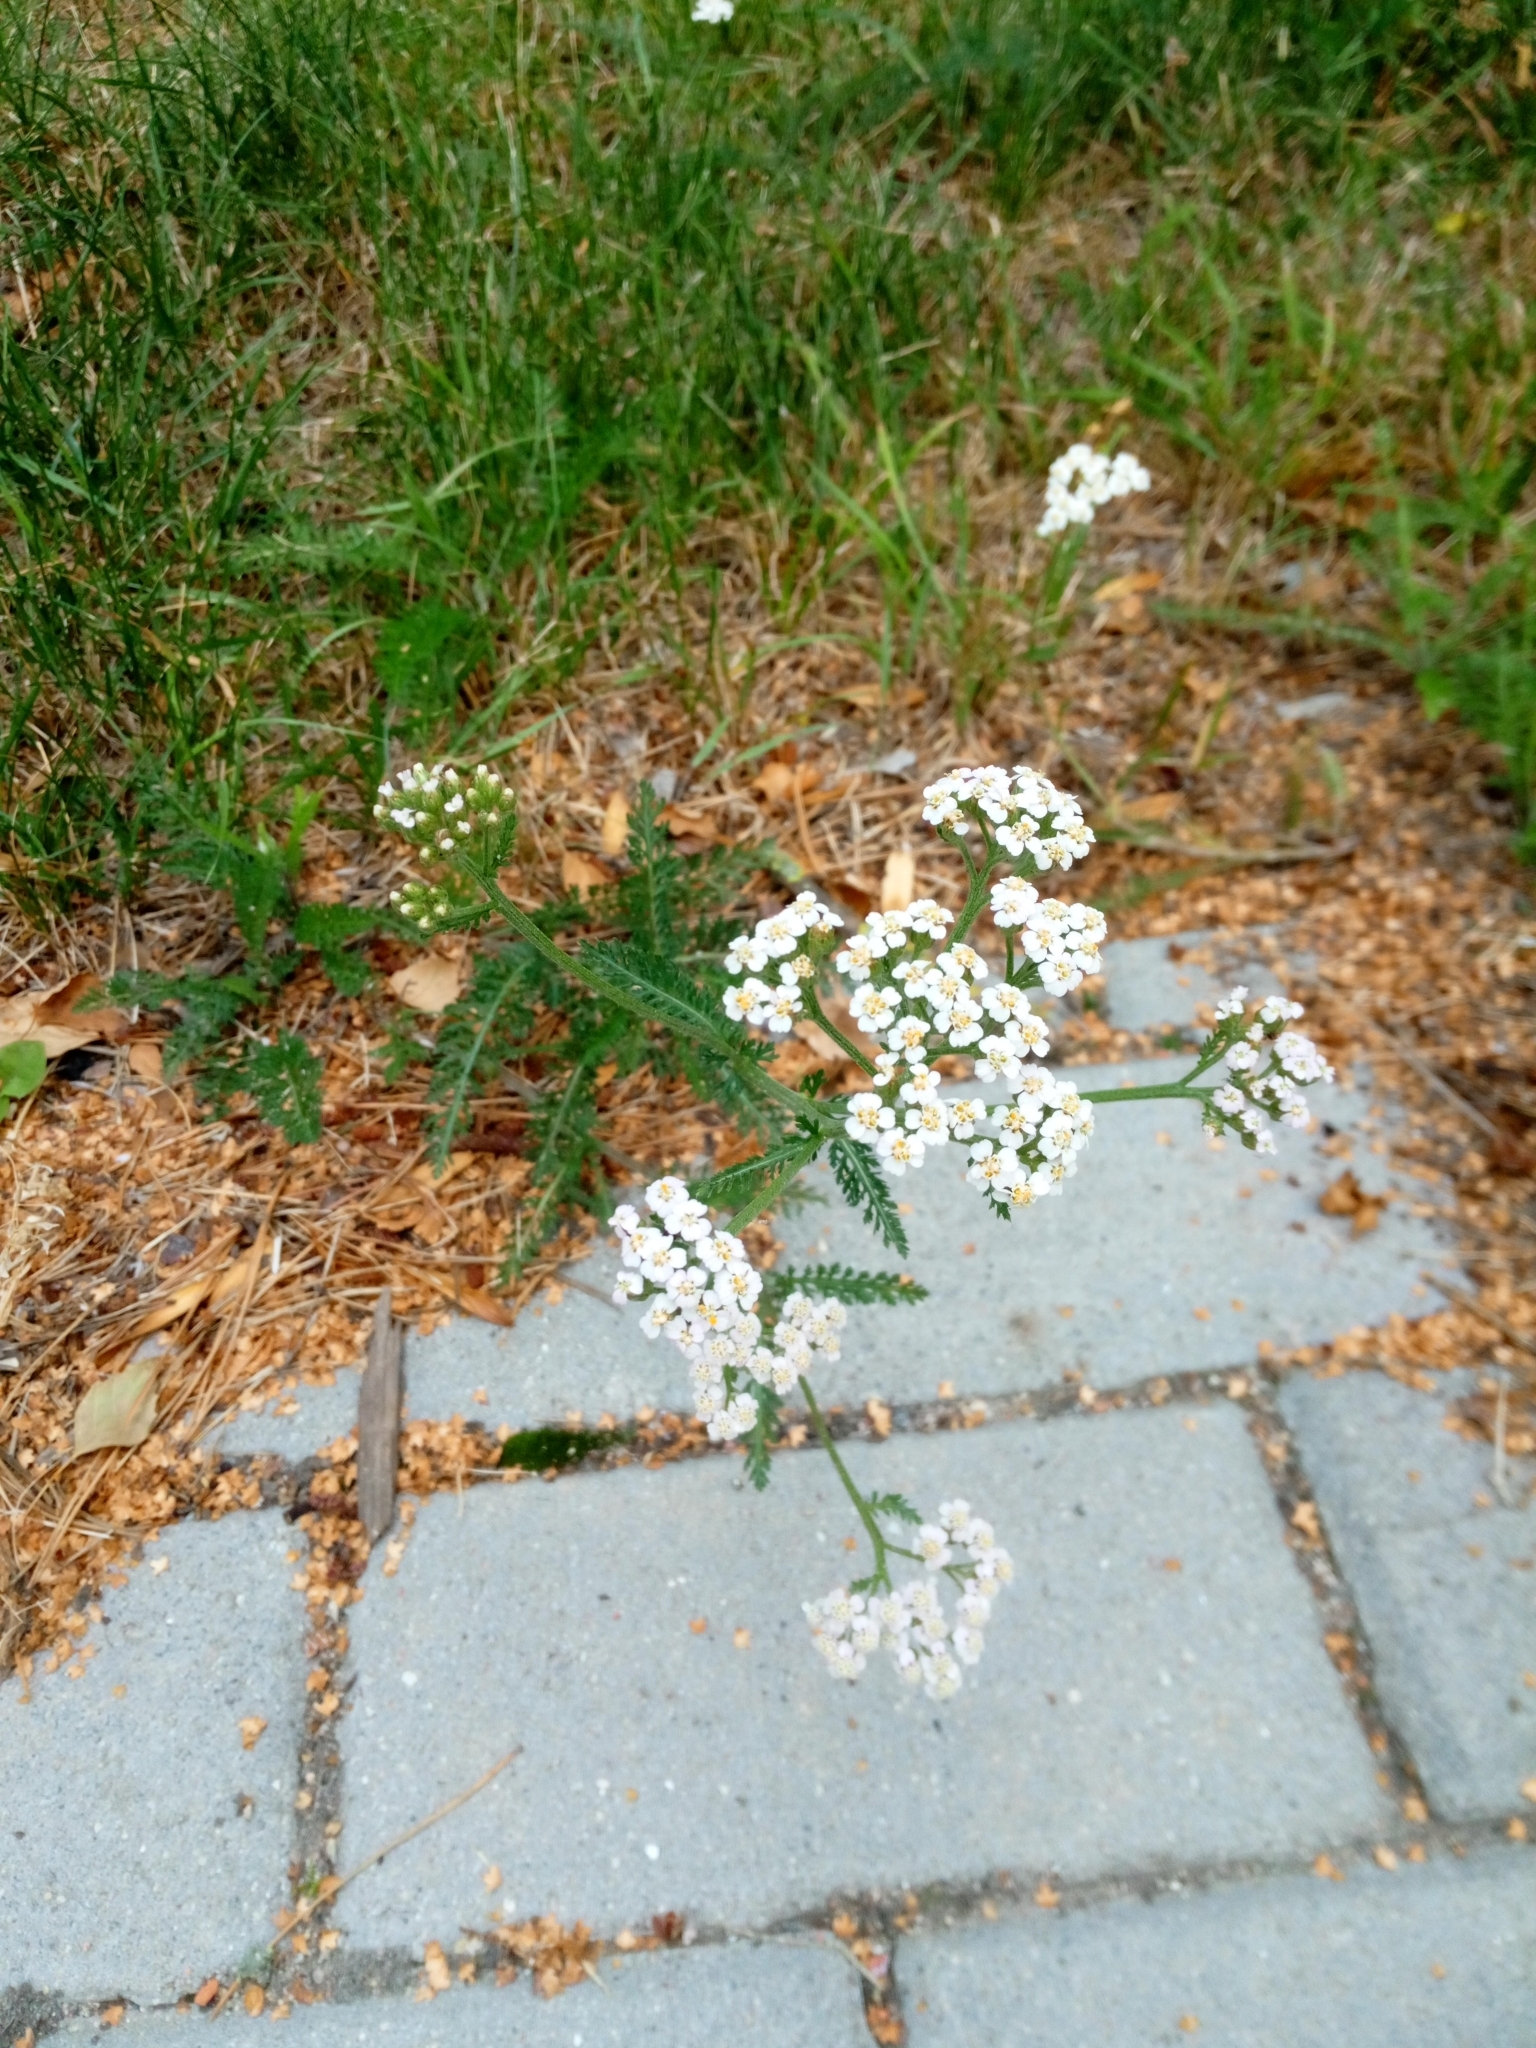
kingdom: Plantae
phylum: Tracheophyta
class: Magnoliopsida
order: Asterales
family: Asteraceae
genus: Achillea
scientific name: Achillea millefolium
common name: Yarrow
